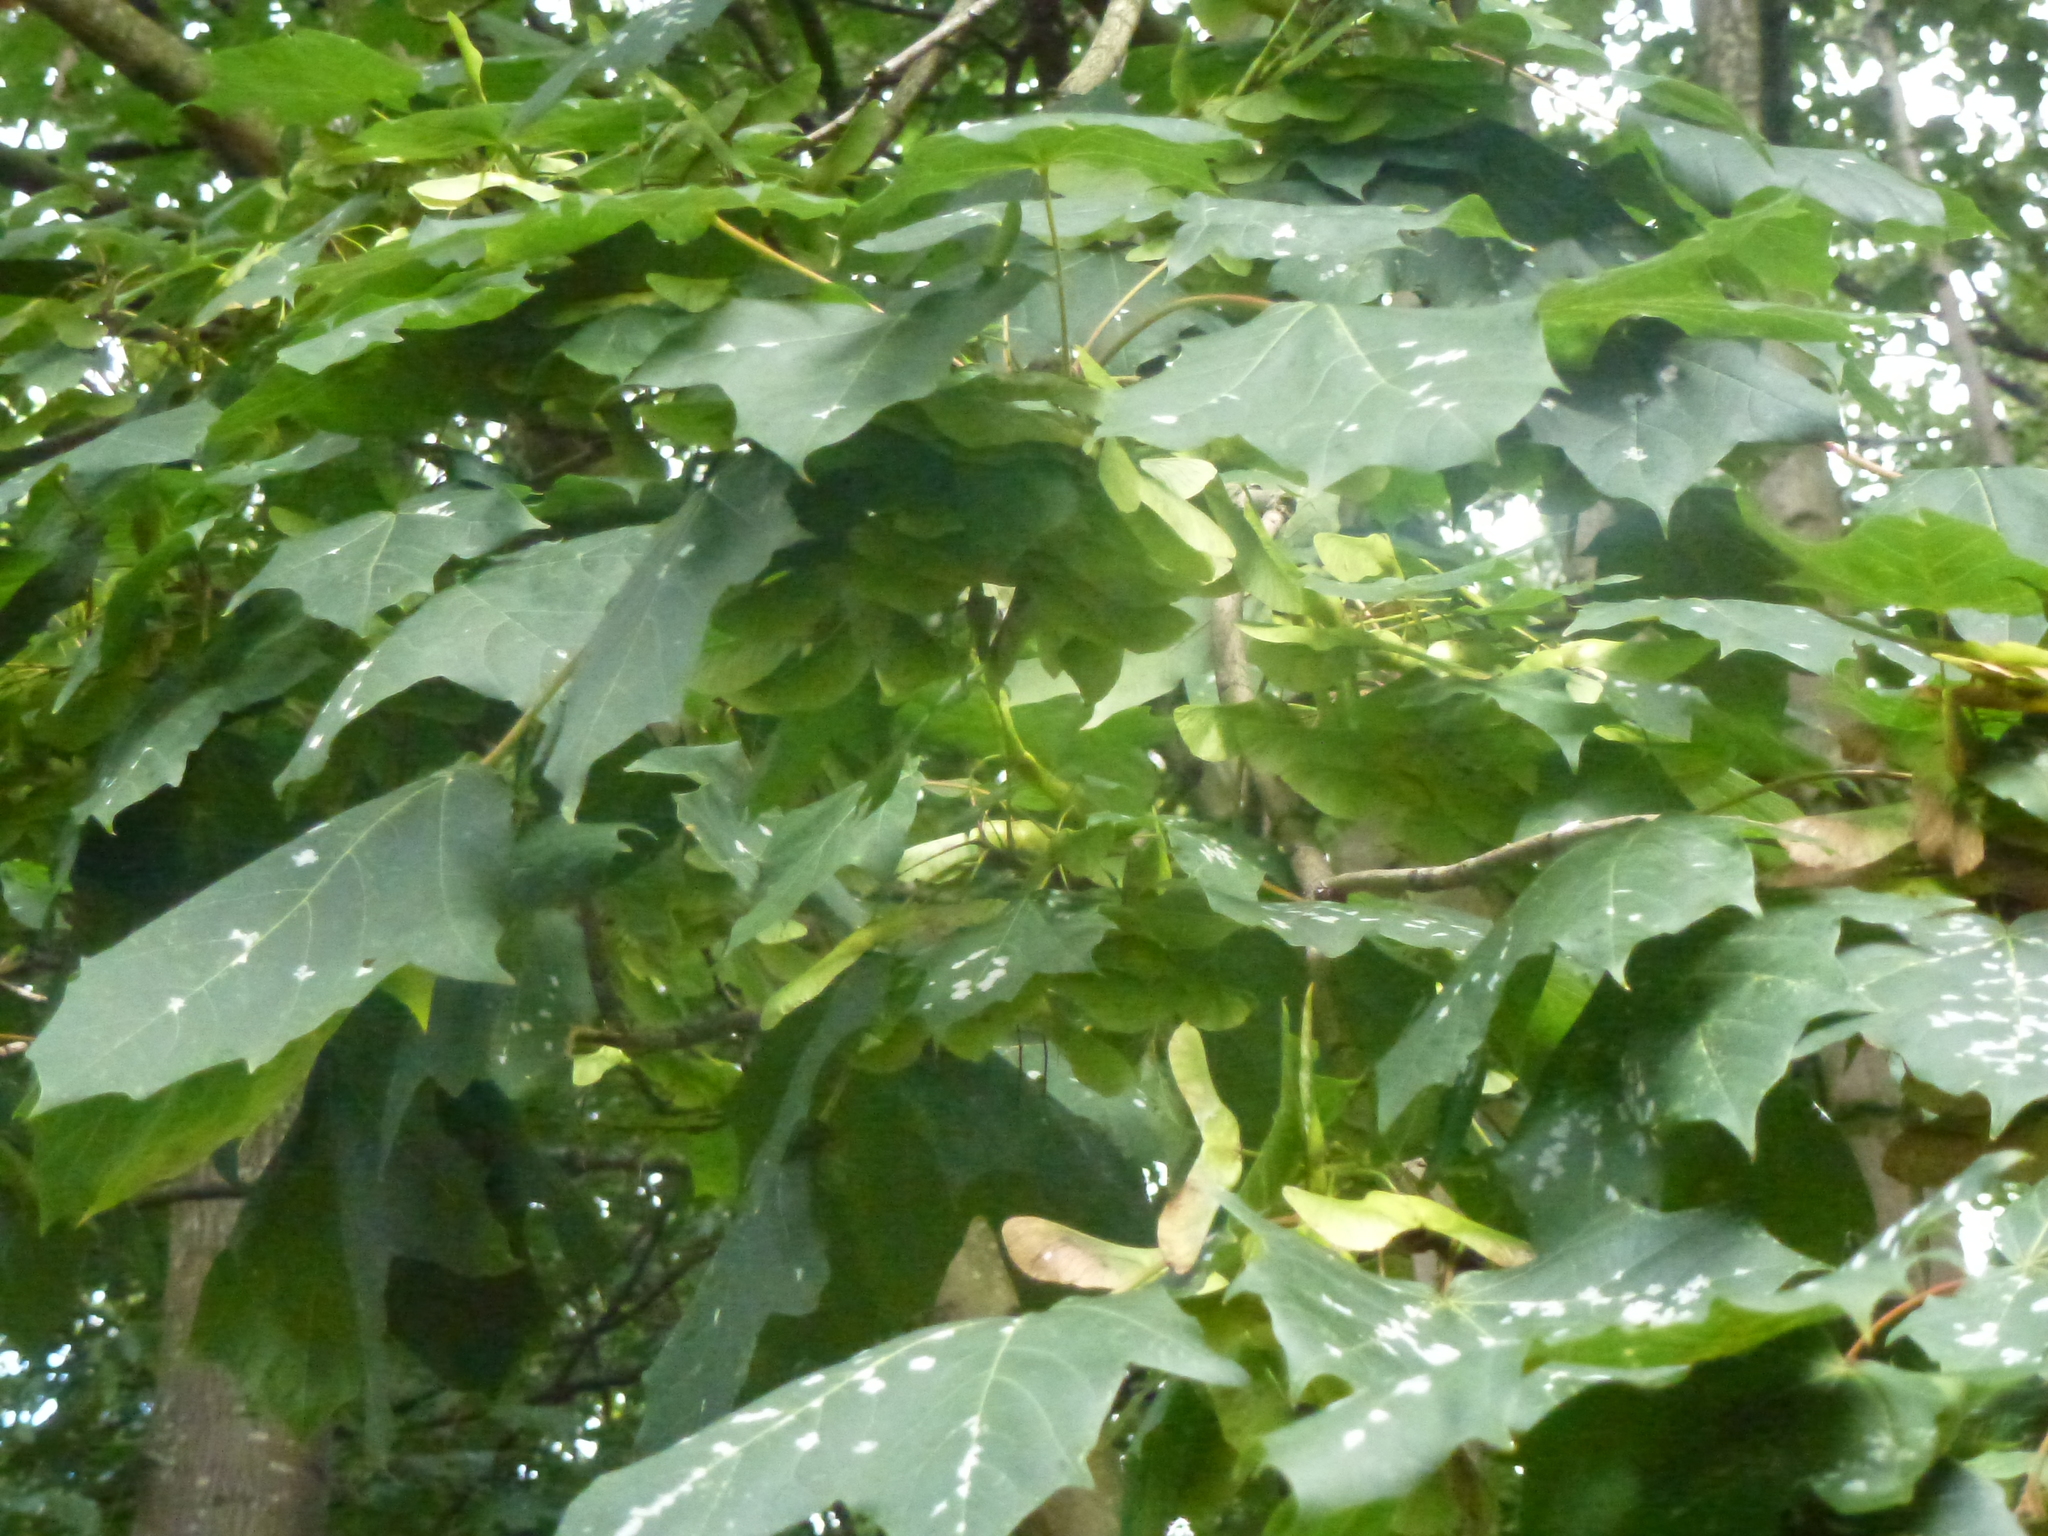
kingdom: Plantae
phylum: Tracheophyta
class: Magnoliopsida
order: Sapindales
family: Sapindaceae
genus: Acer
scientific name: Acer platanoides
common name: Norway maple
